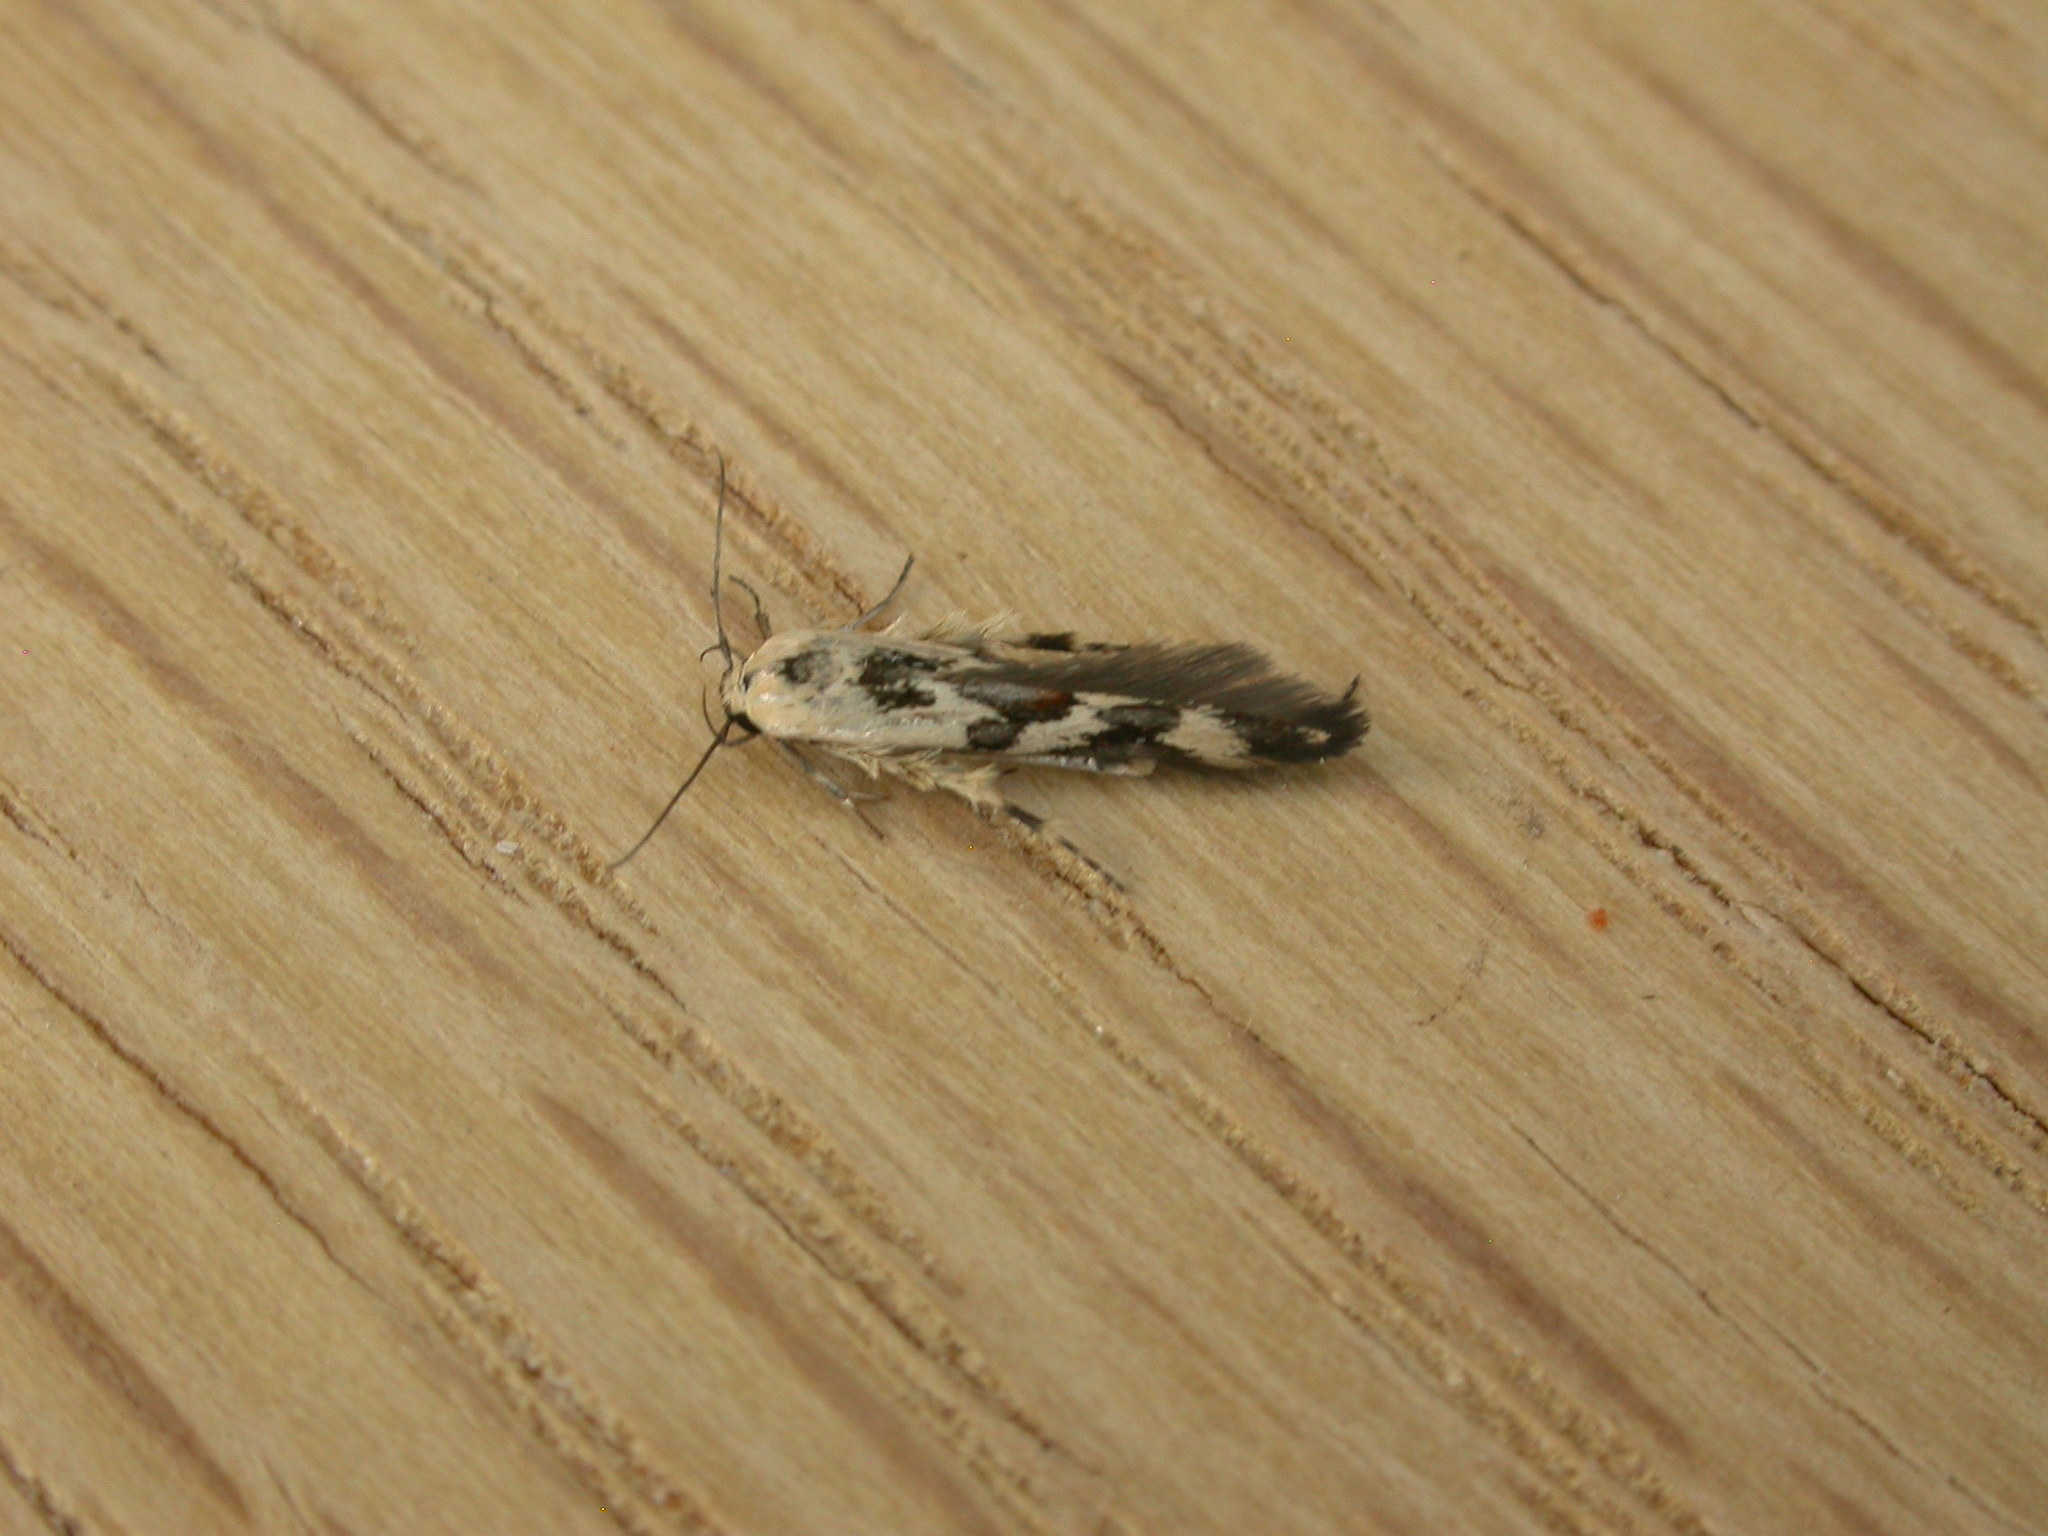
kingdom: Animalia
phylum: Arthropoda
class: Insecta
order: Lepidoptera
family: Stathmopodidae
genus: Stathmopoda
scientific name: Stathmopoda melanochra
